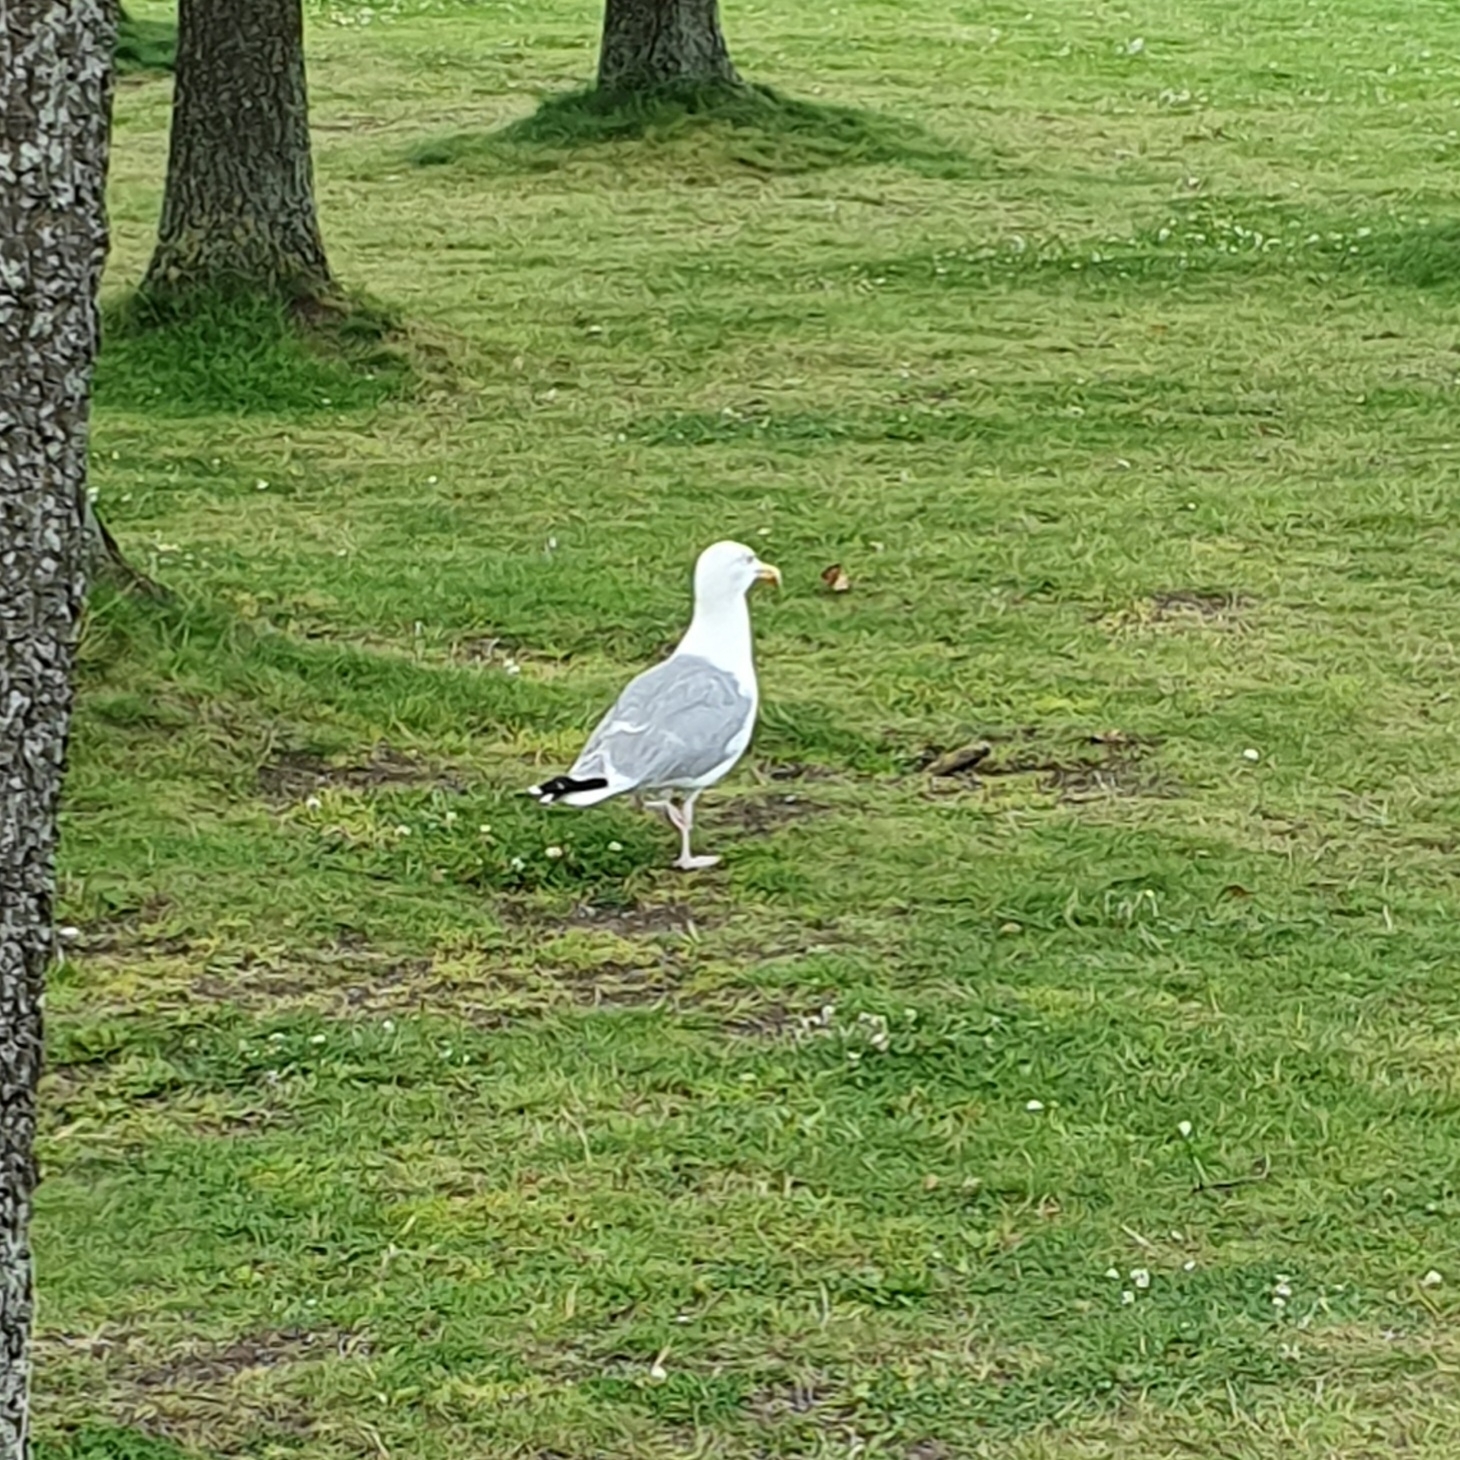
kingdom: Animalia
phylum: Chordata
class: Aves
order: Charadriiformes
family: Laridae
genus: Larus
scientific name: Larus argentatus
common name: Herring gull
